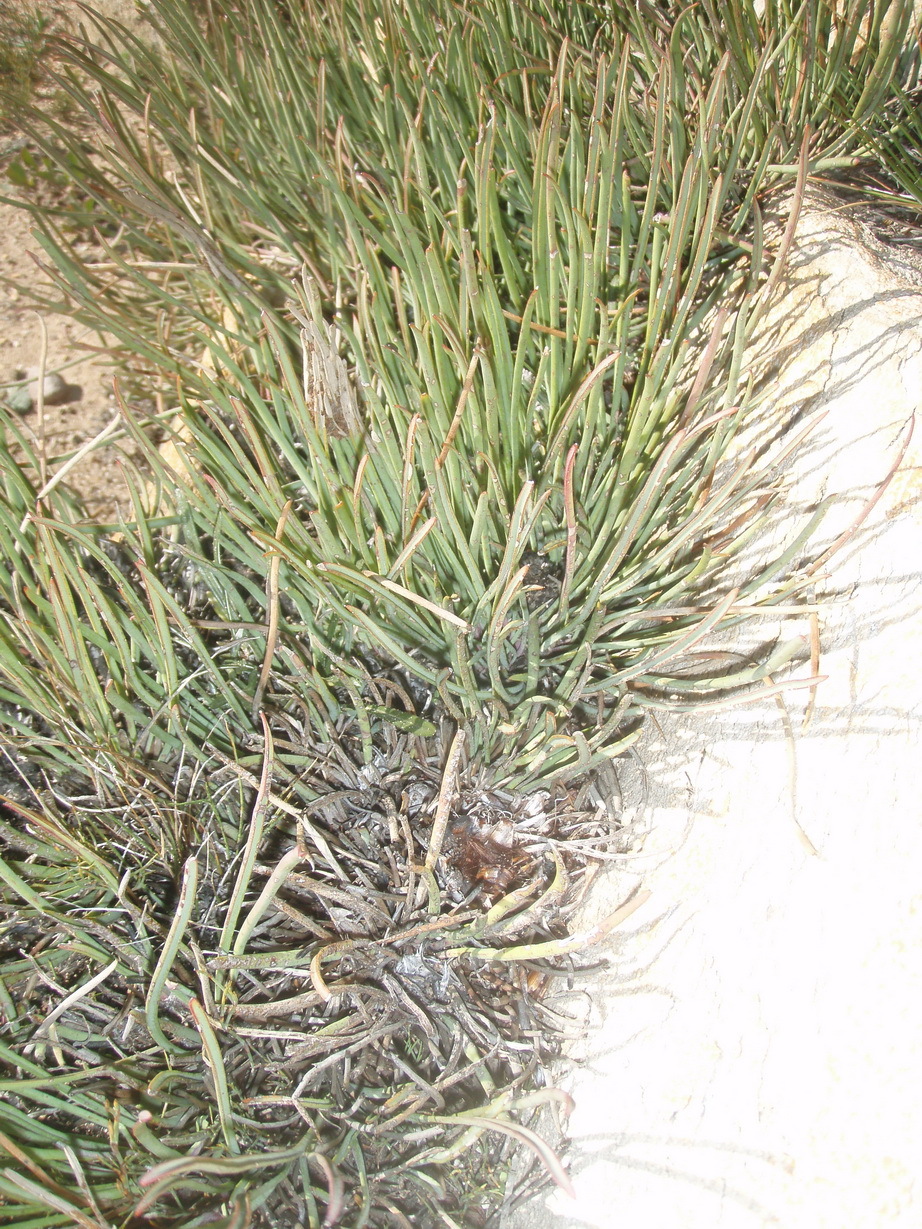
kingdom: Plantae
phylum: Tracheophyta
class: Magnoliopsida
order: Proteales
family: Proteaceae
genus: Protea
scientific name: Protea montana
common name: Swartberg sugarbush
